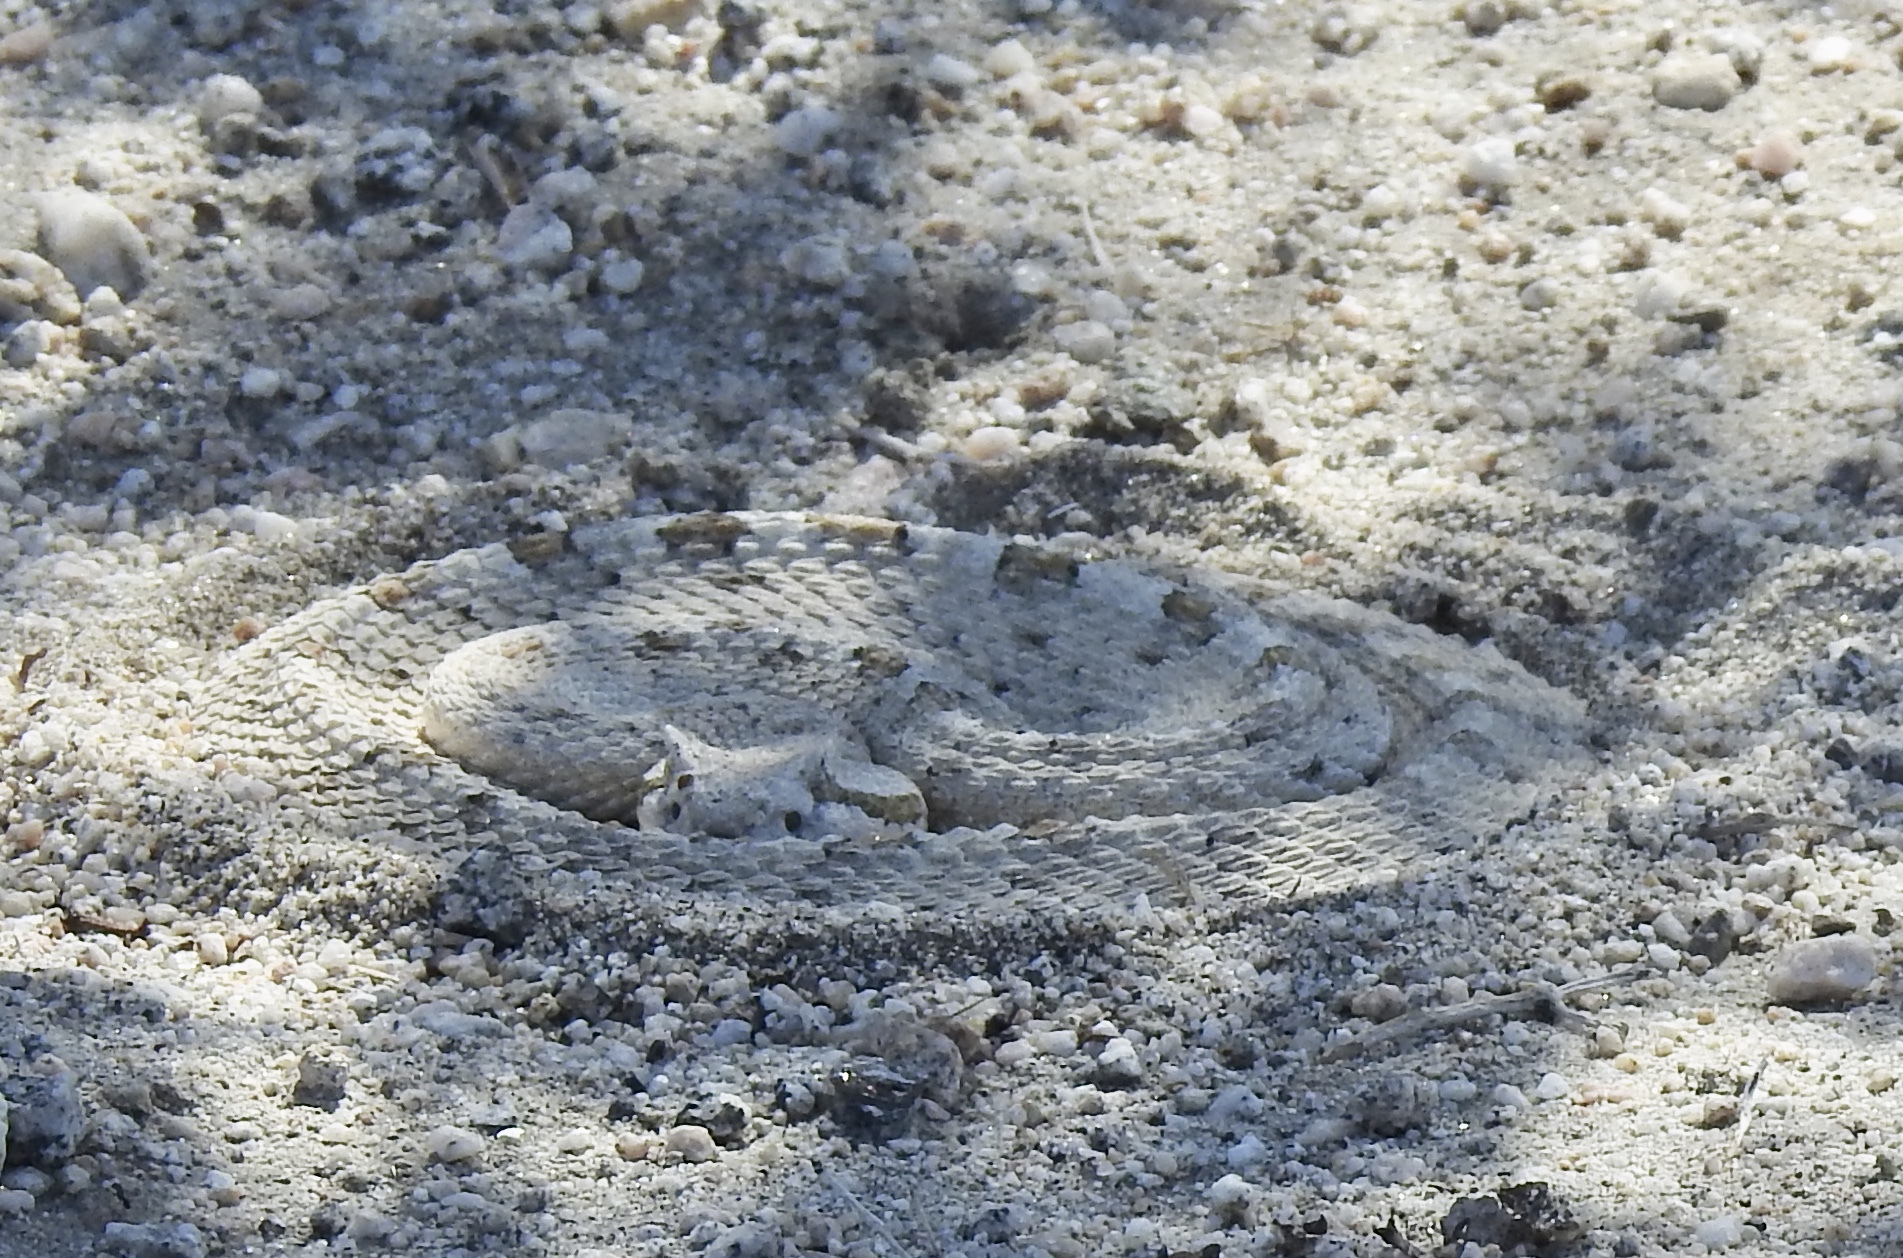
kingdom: Animalia
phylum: Chordata
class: Squamata
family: Viperidae
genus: Crotalus
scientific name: Crotalus cerastes
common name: Sidewinder
